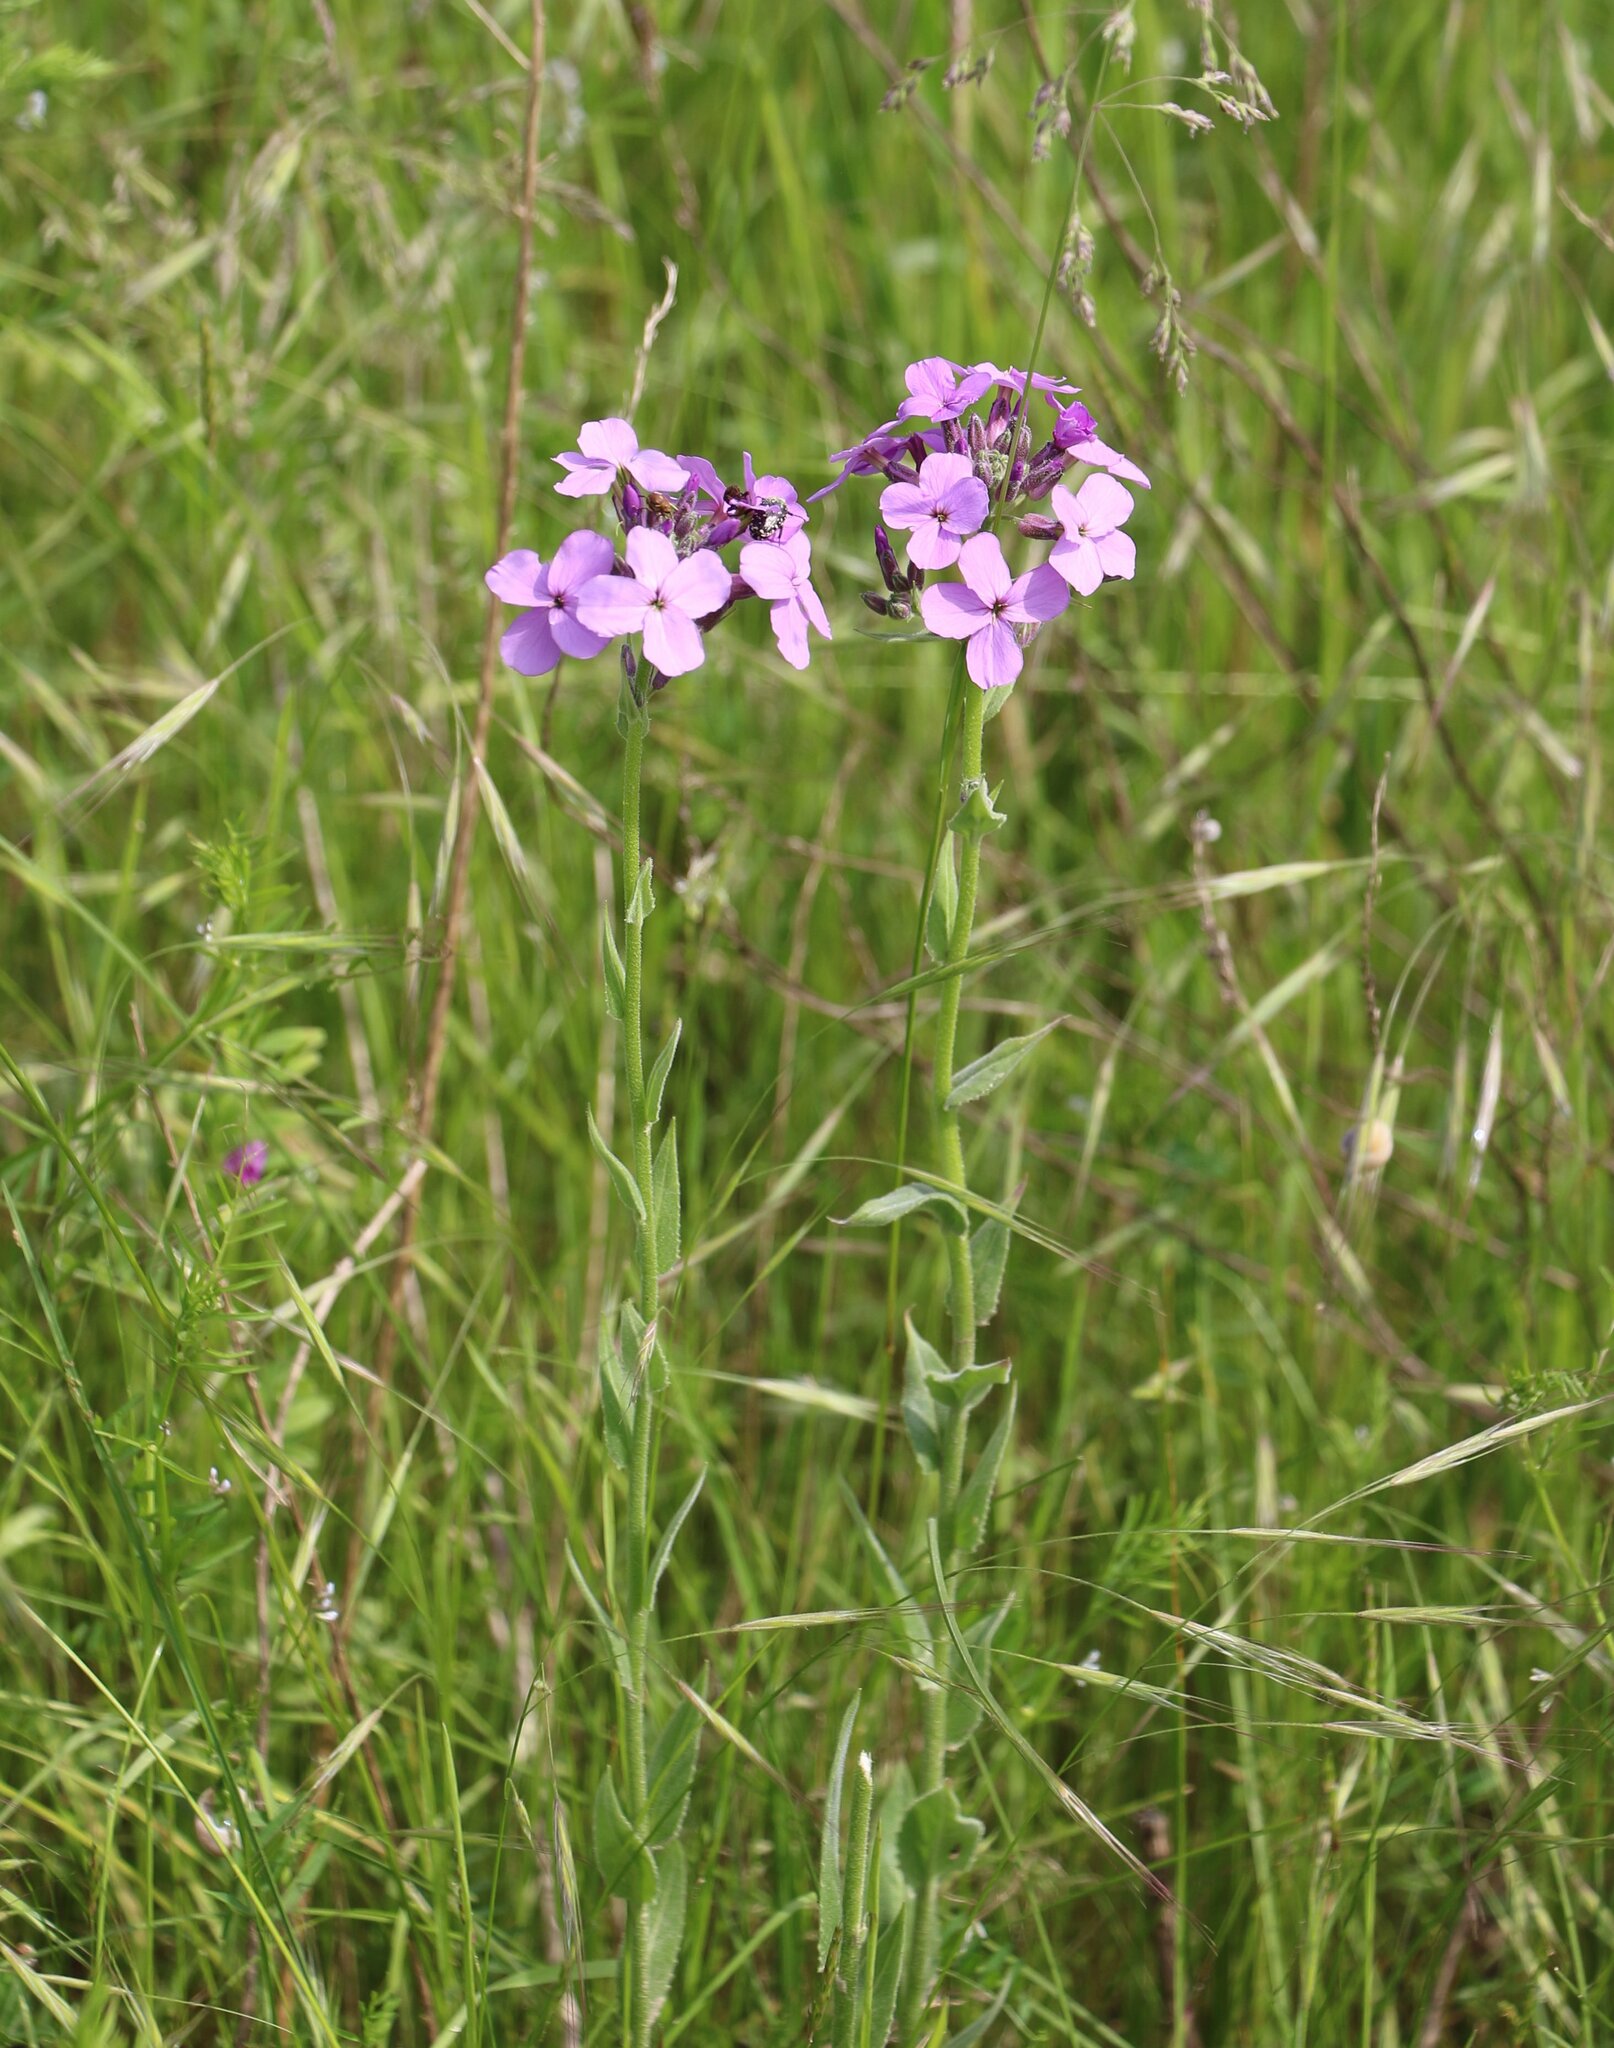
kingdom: Plantae
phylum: Tracheophyta
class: Magnoliopsida
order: Brassicales
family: Brassicaceae
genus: Hesperis
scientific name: Hesperis matronalis
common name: Dame's-violet
